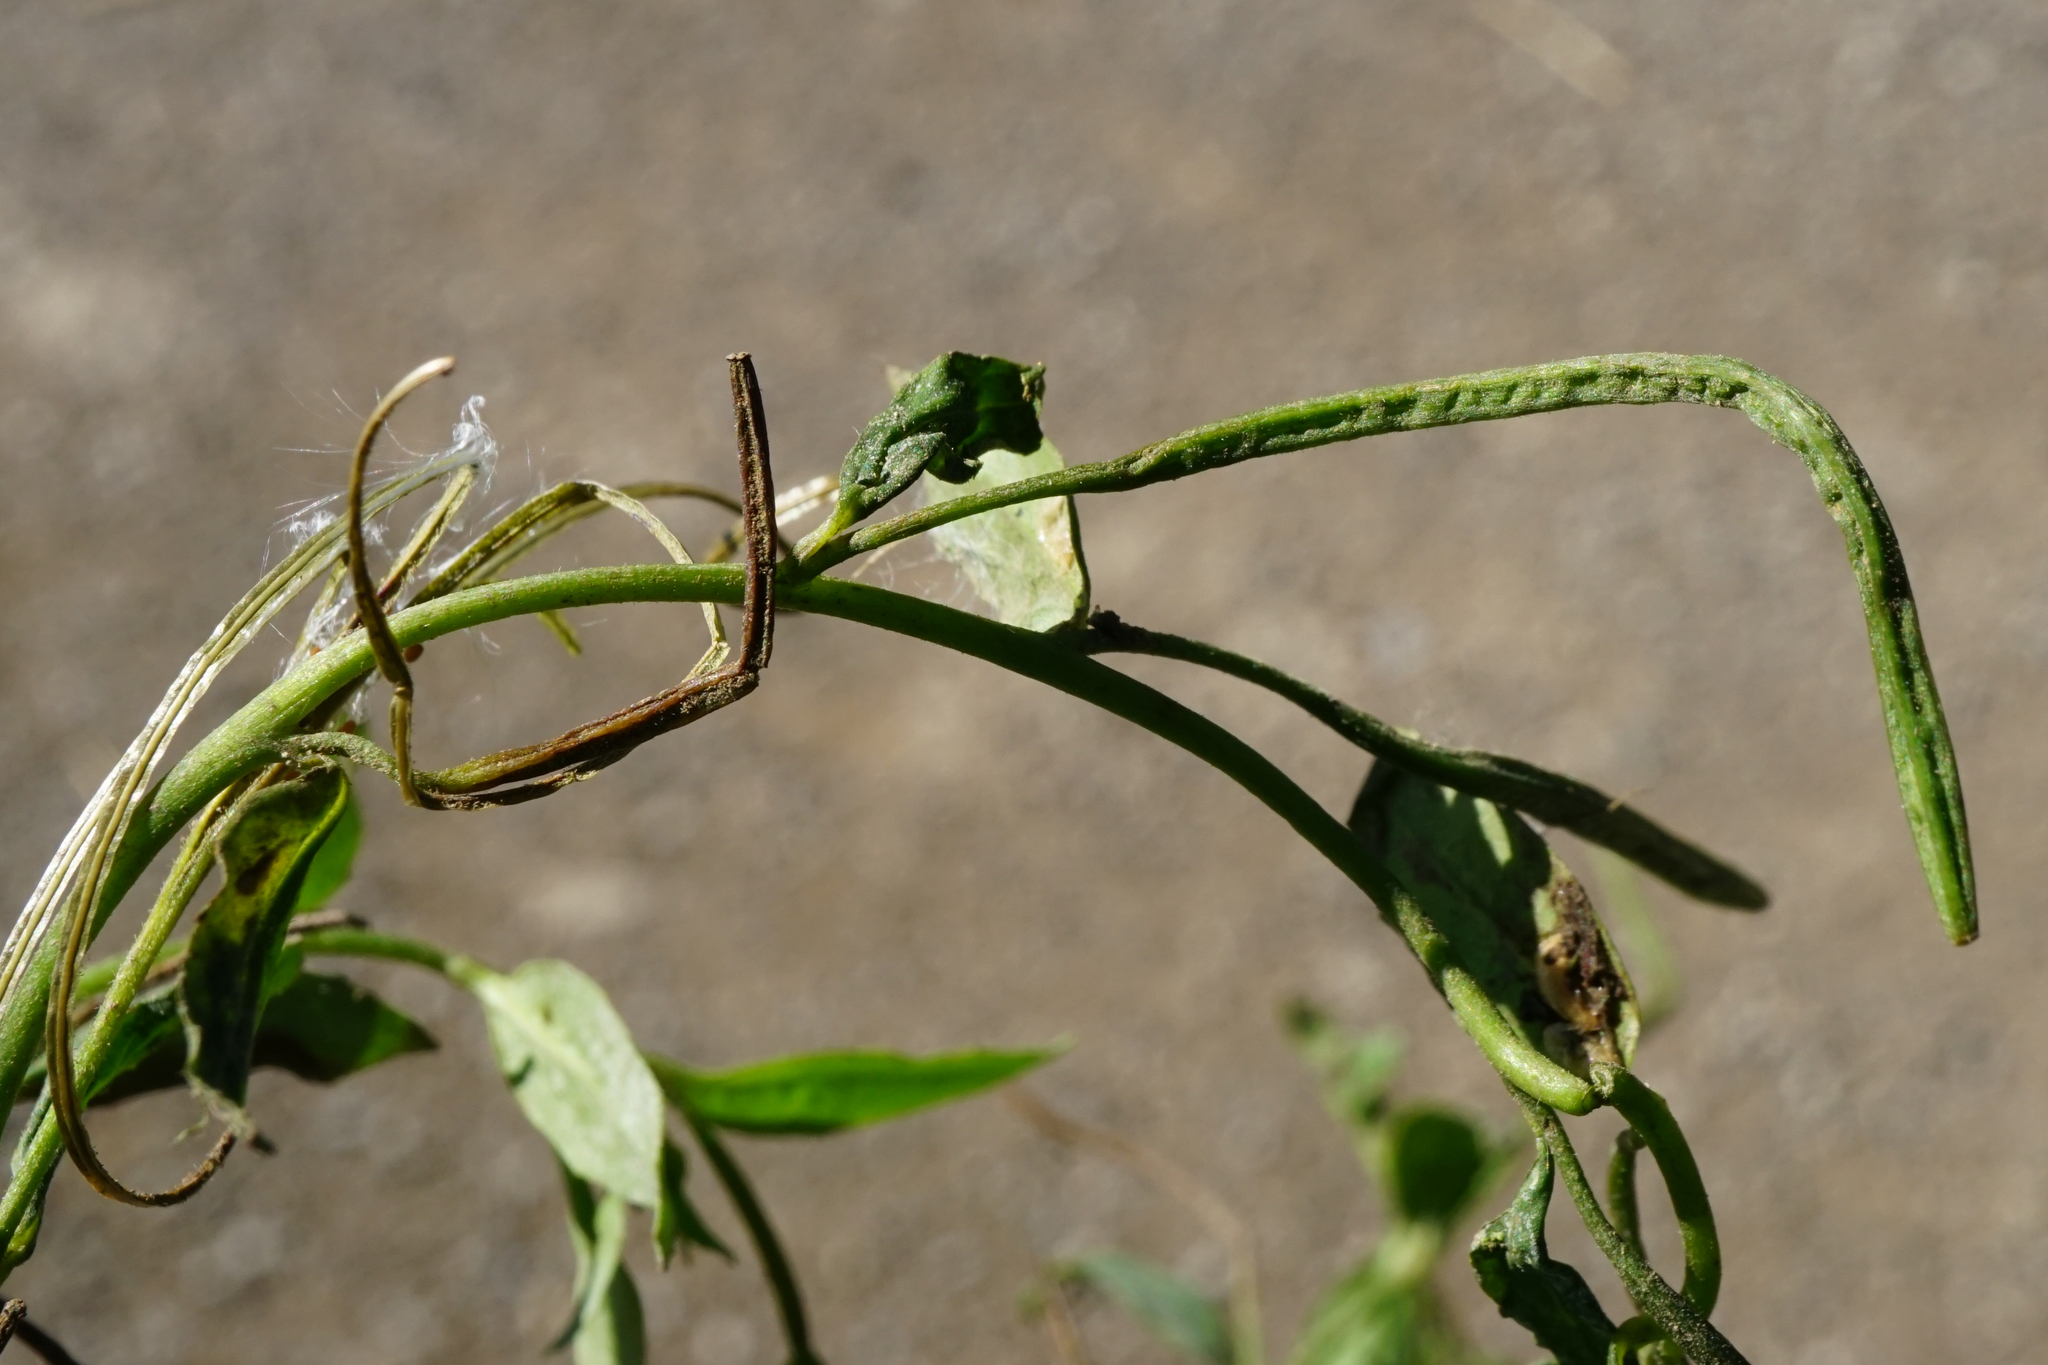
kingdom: Plantae
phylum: Tracheophyta
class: Magnoliopsida
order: Myrtales
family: Onagraceae
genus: Epilobium
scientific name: Epilobium parviflorum
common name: Hoary willowherb
